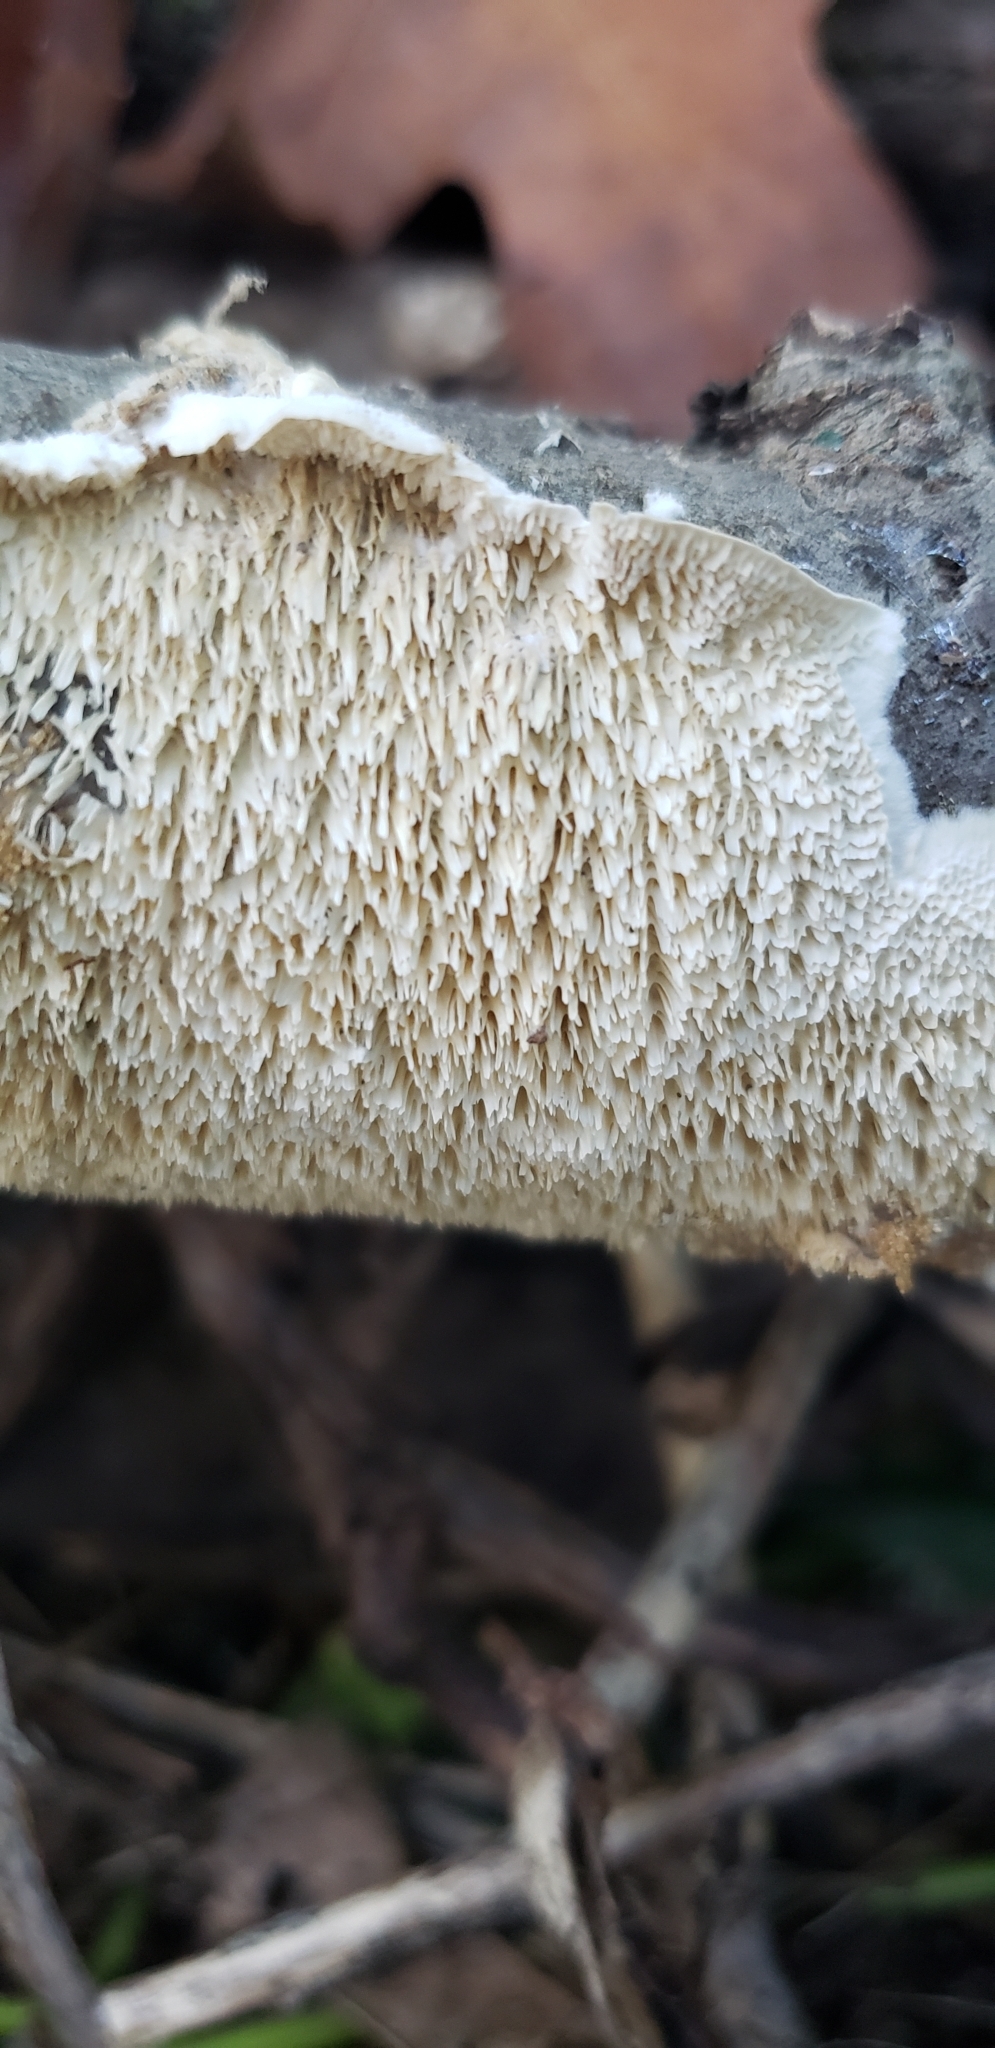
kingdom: Fungi
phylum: Basidiomycota
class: Agaricomycetes
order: Polyporales
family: Irpicaceae
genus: Irpex
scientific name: Irpex lacteus
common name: Milk-white toothed polypore
